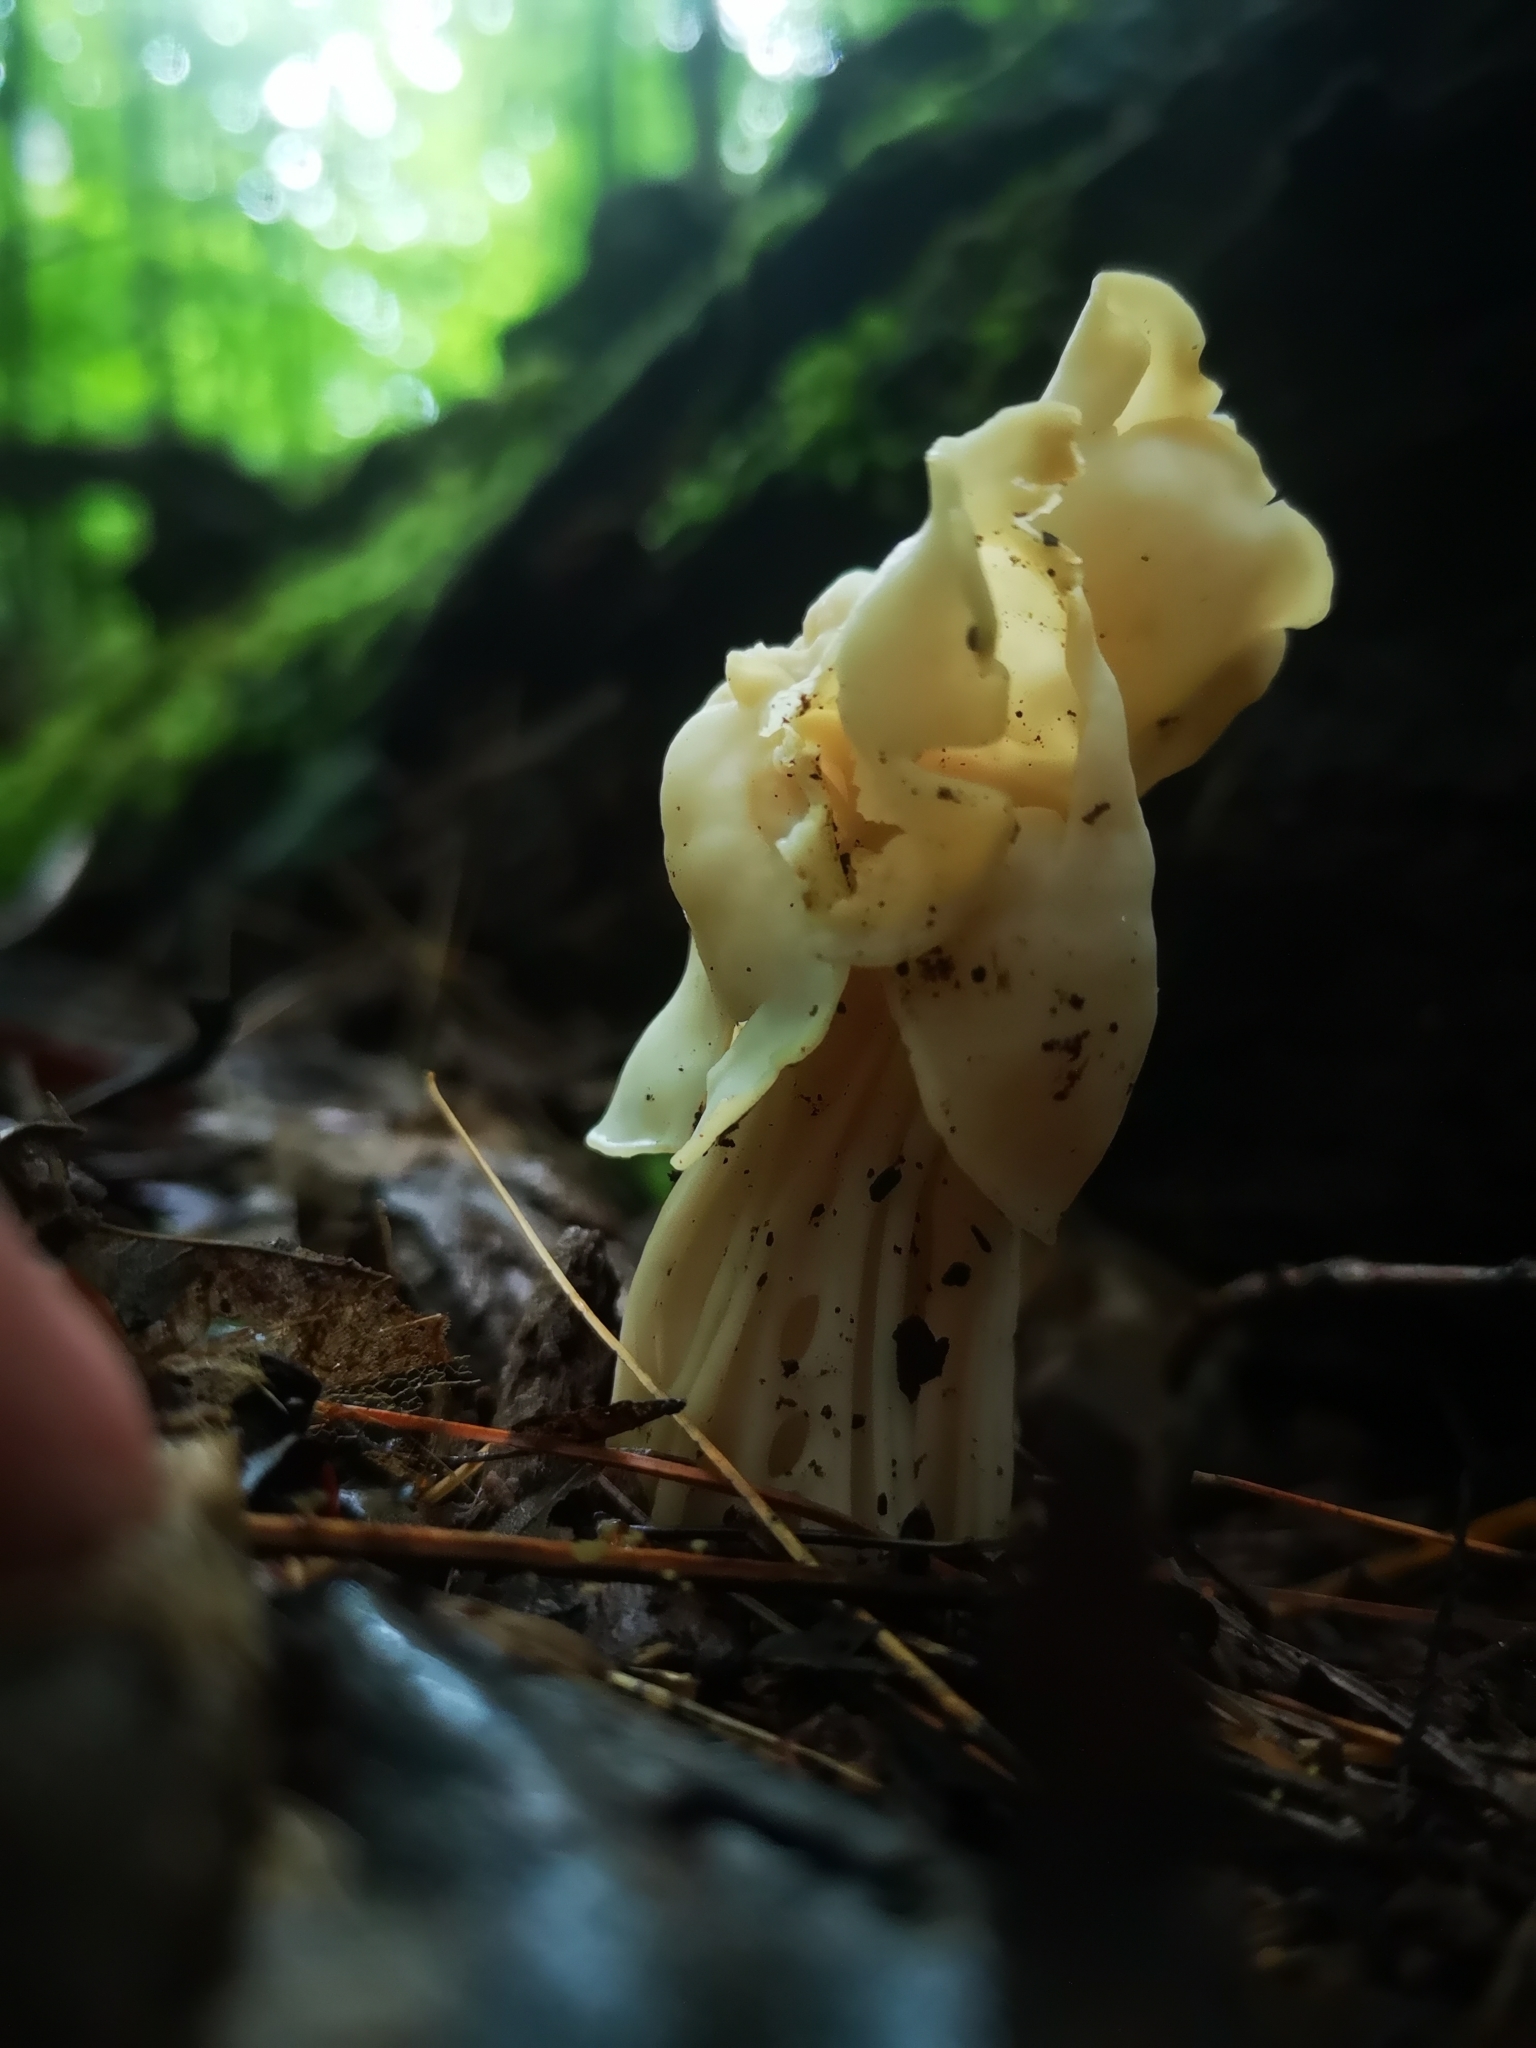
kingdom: Fungi
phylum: Ascomycota
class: Pezizomycetes
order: Pezizales
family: Helvellaceae
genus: Helvella
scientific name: Helvella crispa
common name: White saddle
